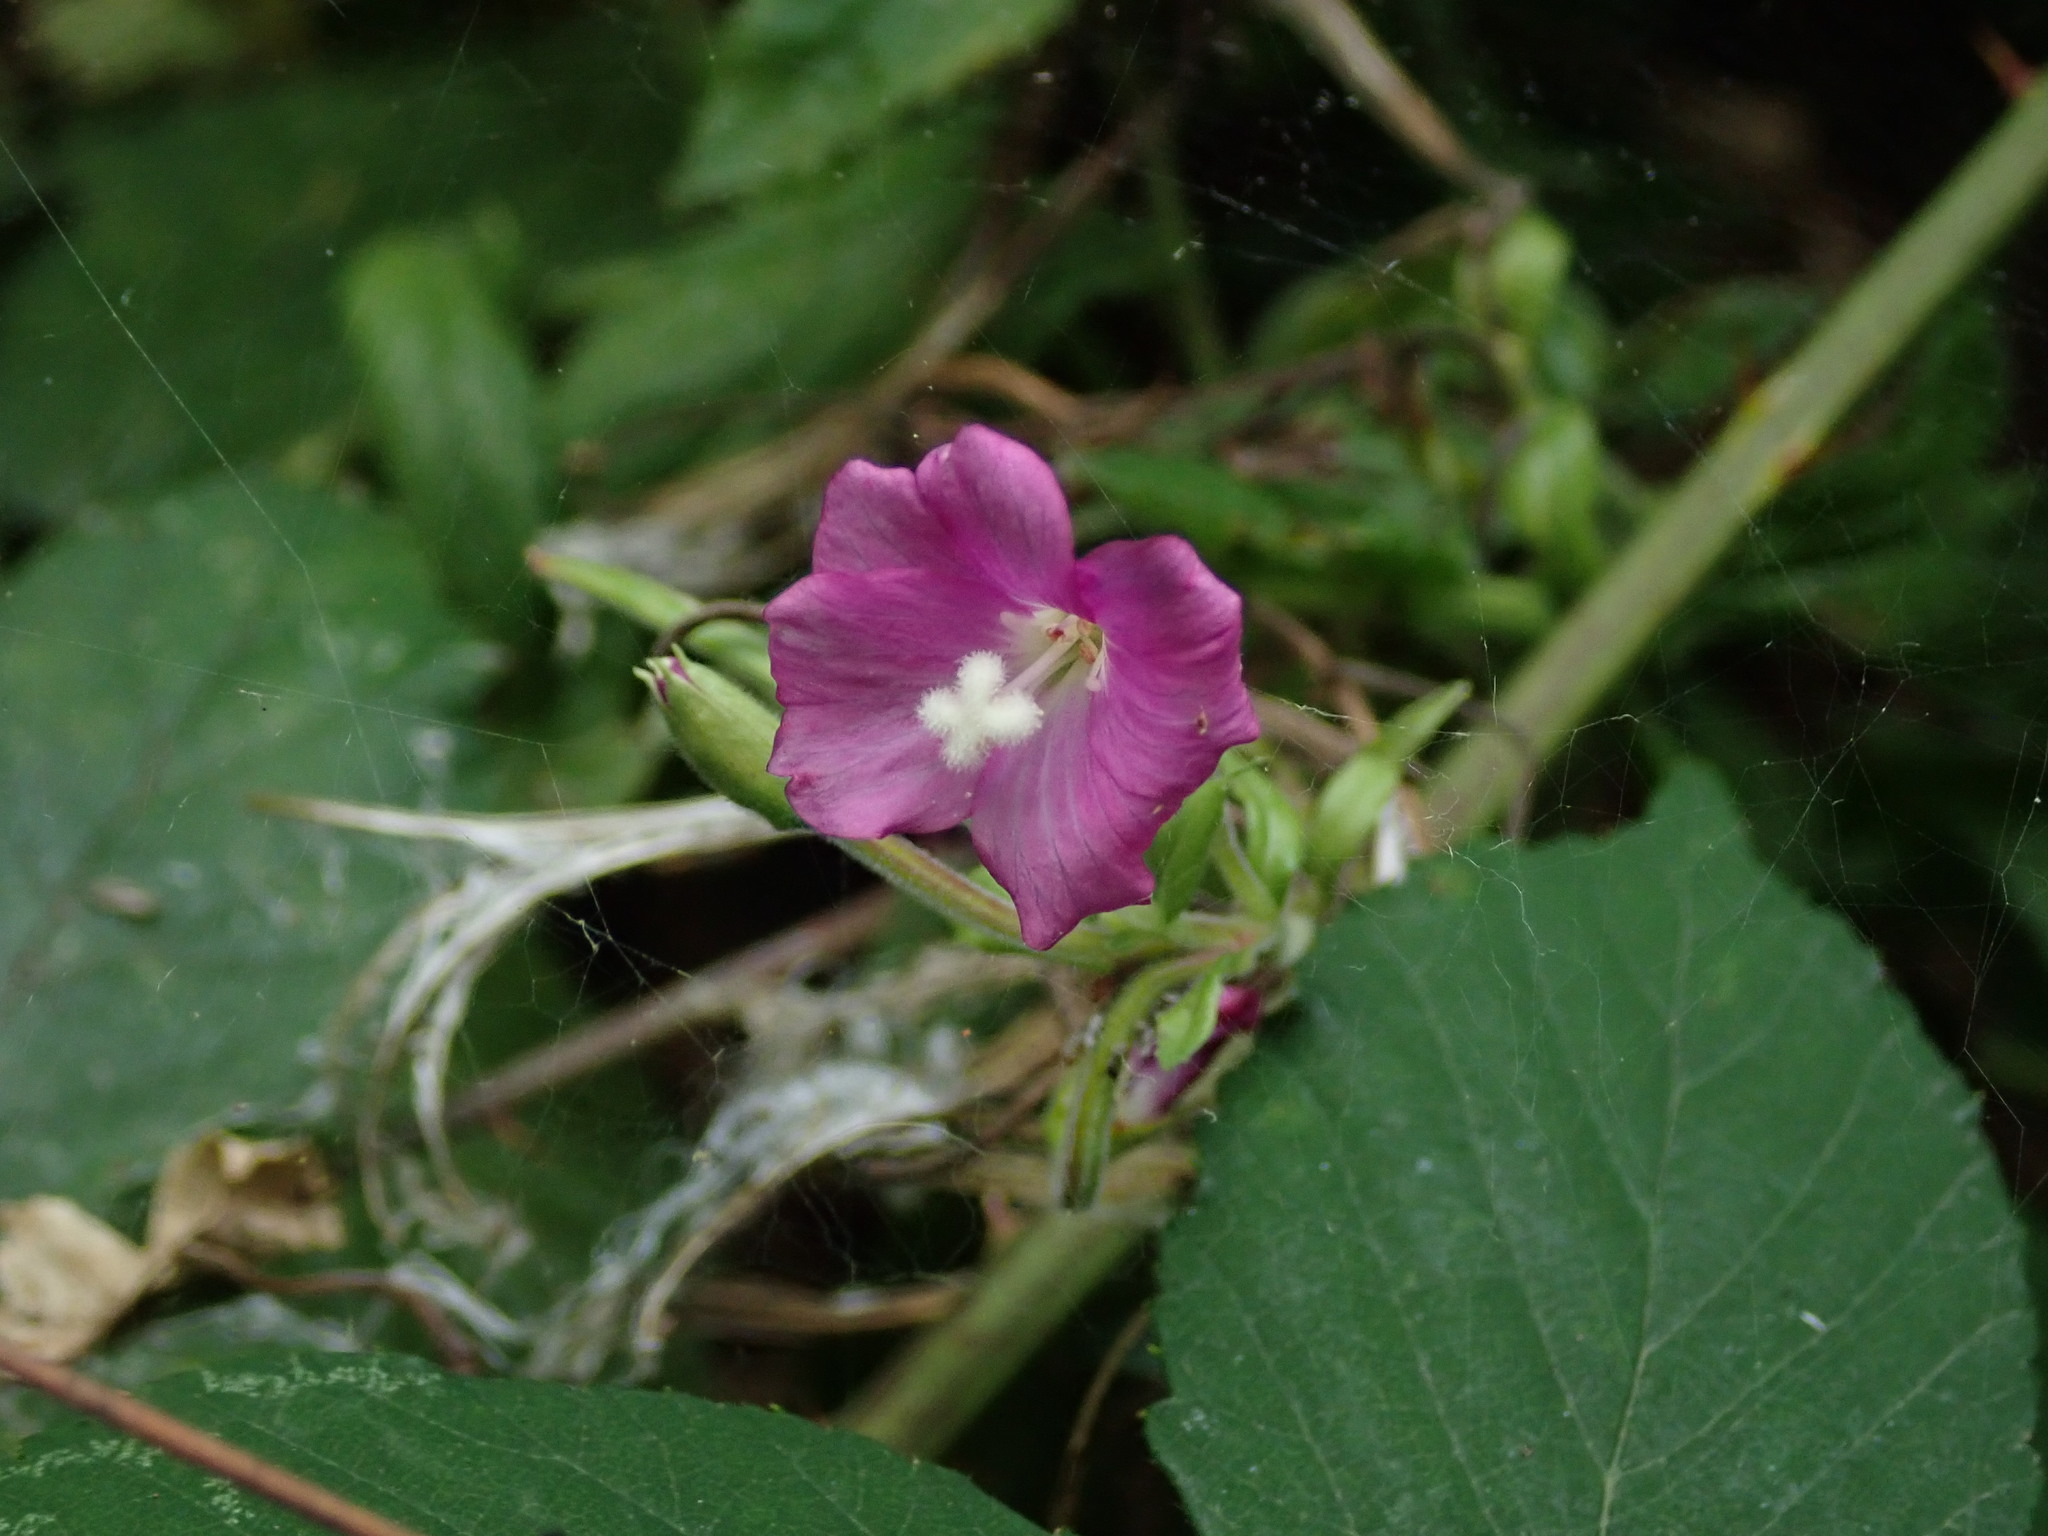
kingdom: Plantae
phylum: Tracheophyta
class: Magnoliopsida
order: Myrtales
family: Onagraceae
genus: Epilobium
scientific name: Epilobium hirsutum
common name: Great willowherb
